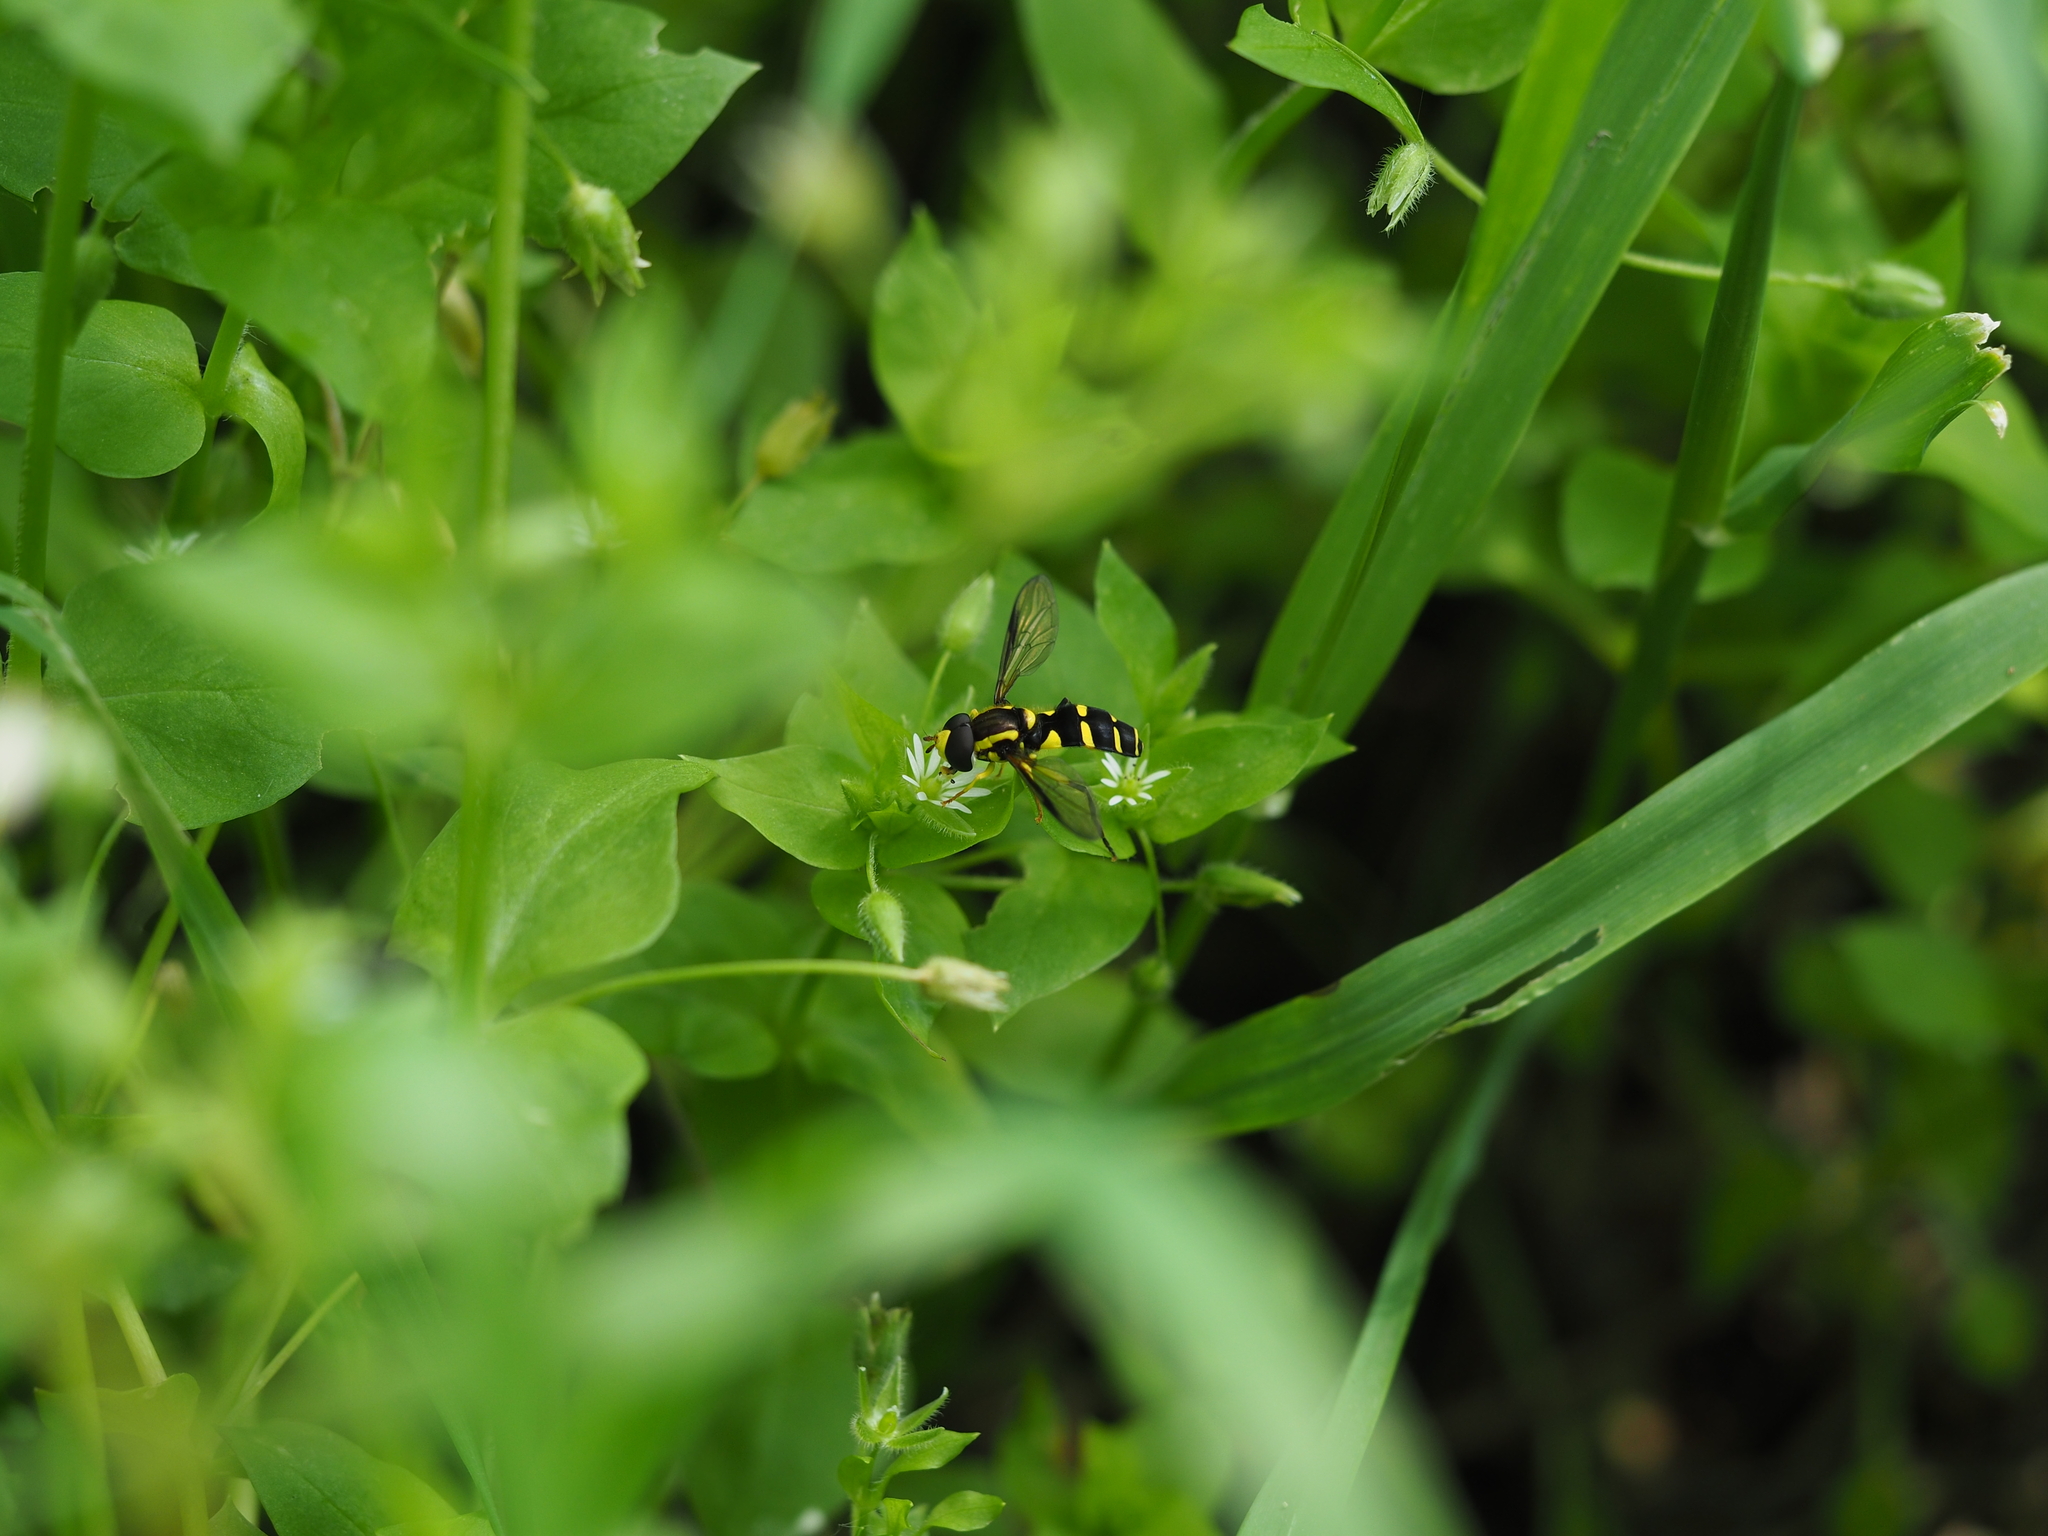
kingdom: Animalia
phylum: Arthropoda
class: Insecta
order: Diptera
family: Syrphidae
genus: Philhelius
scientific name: Philhelius dives
